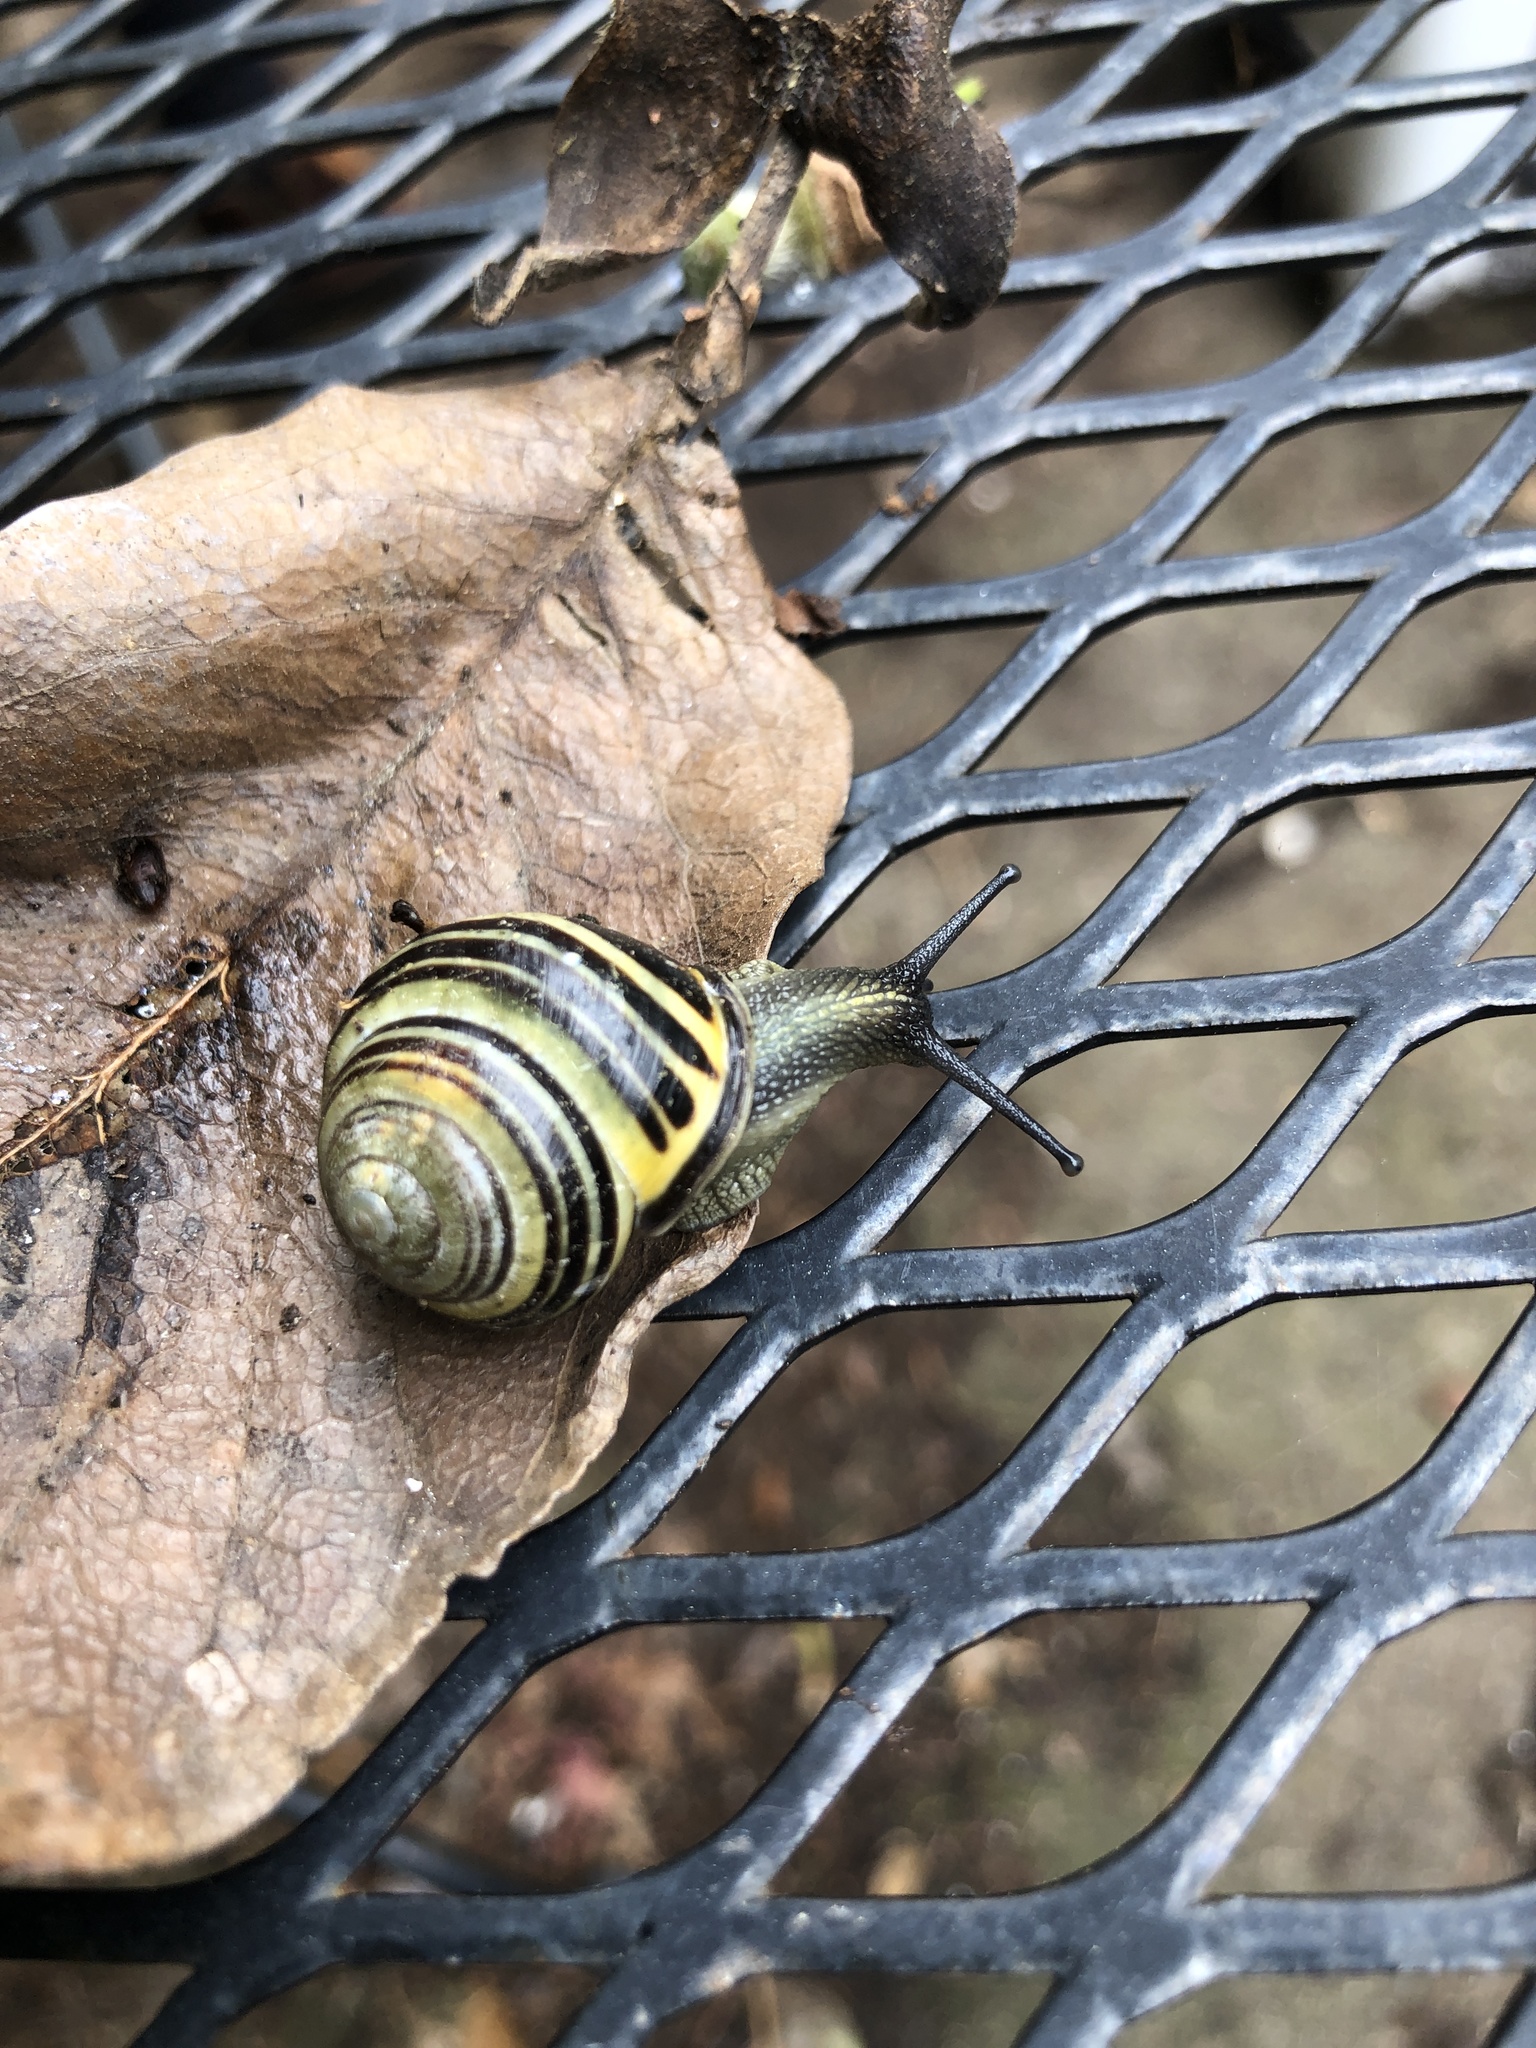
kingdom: Animalia
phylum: Mollusca
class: Gastropoda
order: Stylommatophora
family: Helicidae
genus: Cepaea
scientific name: Cepaea nemoralis
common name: Grovesnail
